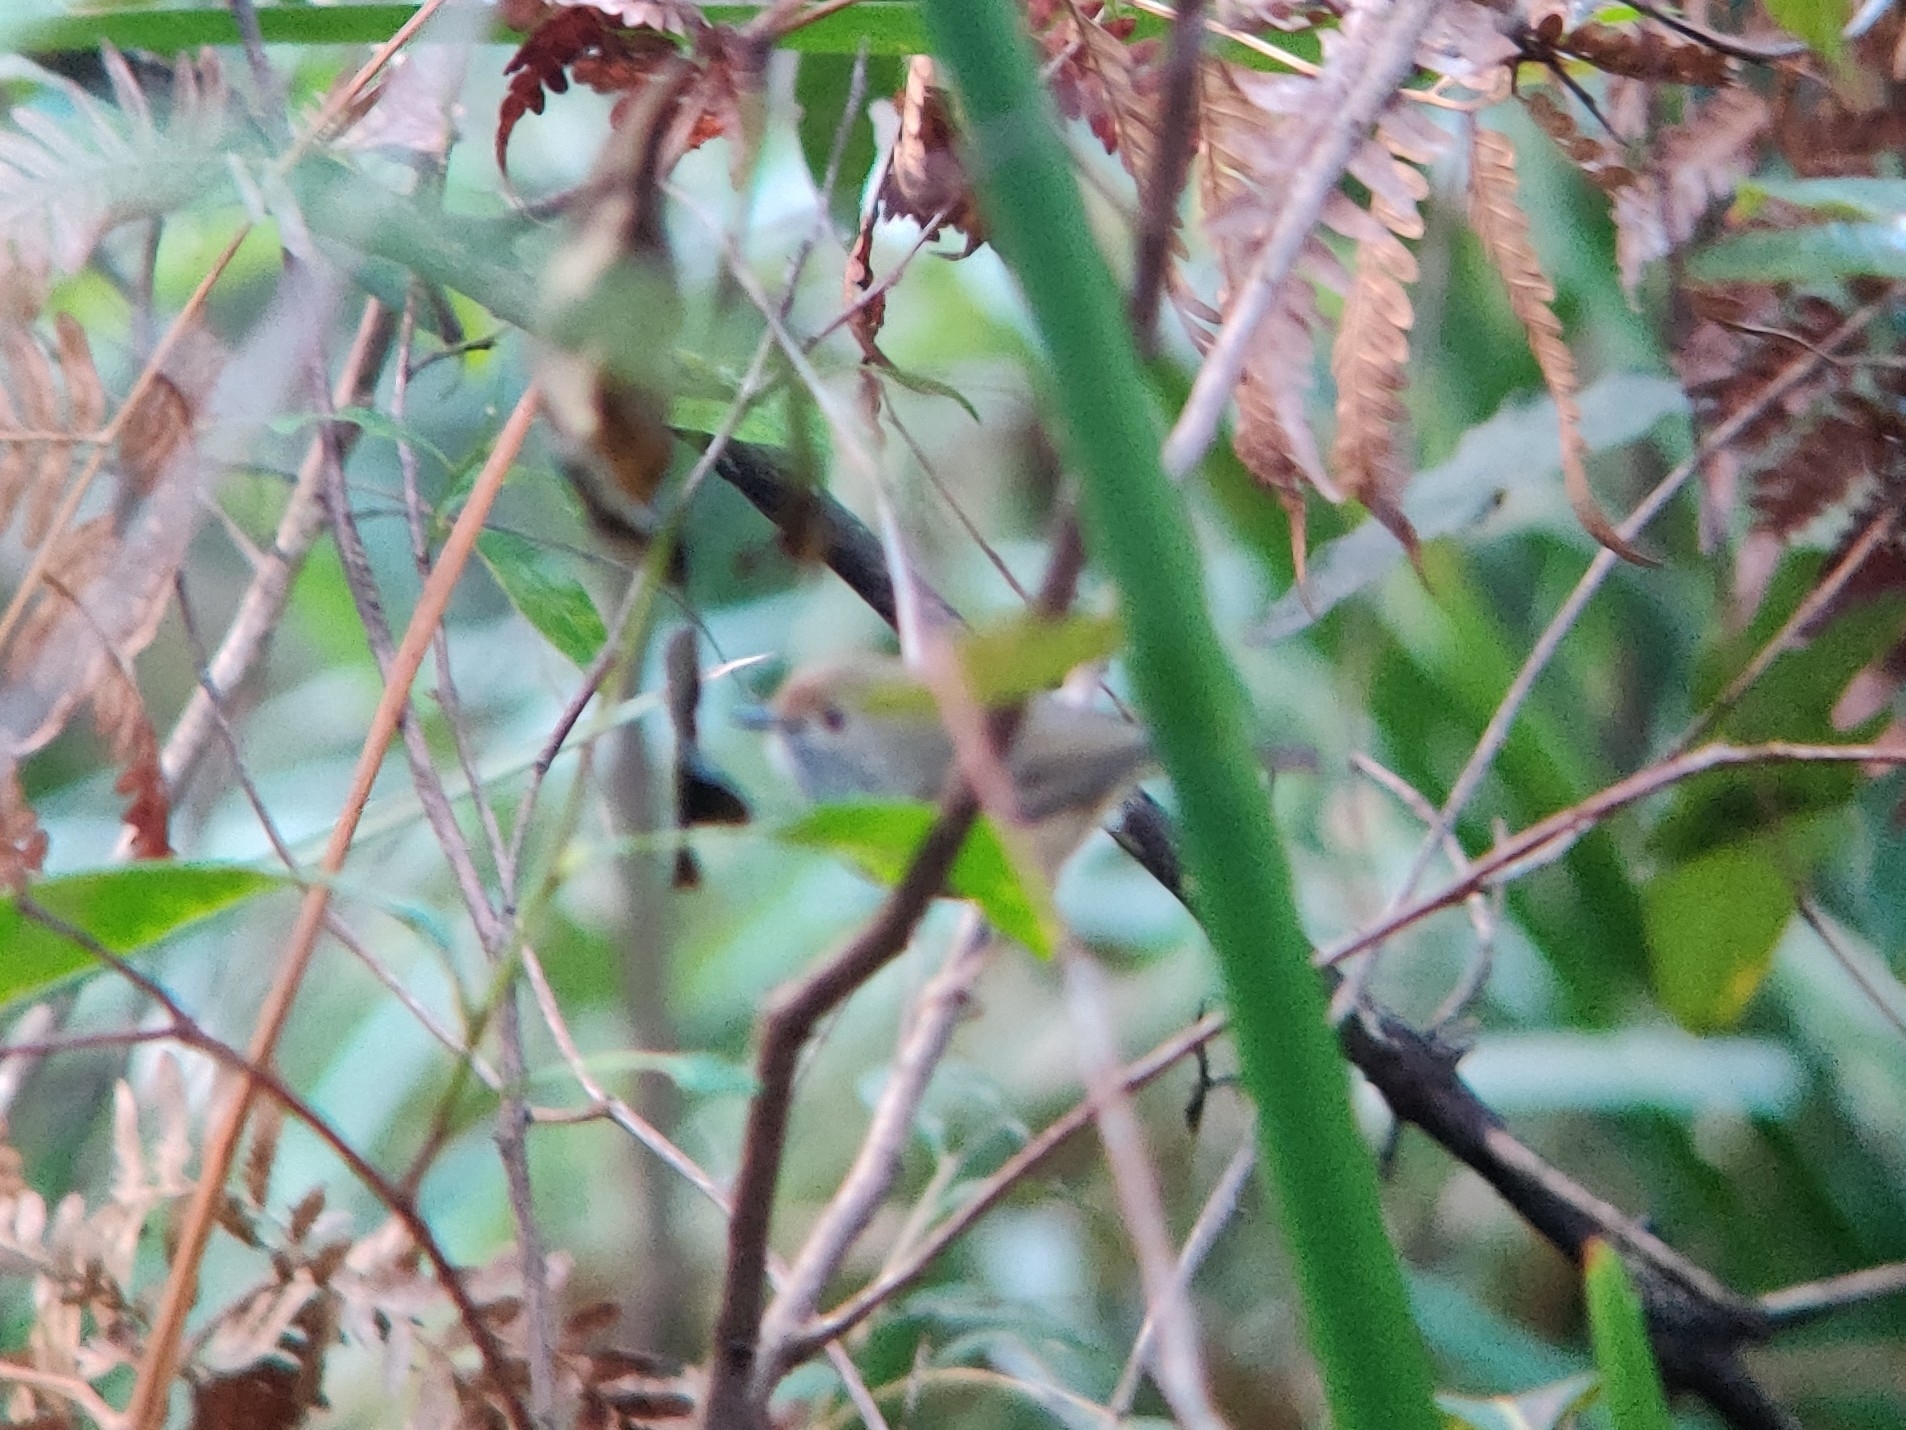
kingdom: Animalia
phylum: Chordata
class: Aves
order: Passeriformes
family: Acanthizidae
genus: Acanthiza
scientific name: Acanthiza pusilla
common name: Brown thornbill
